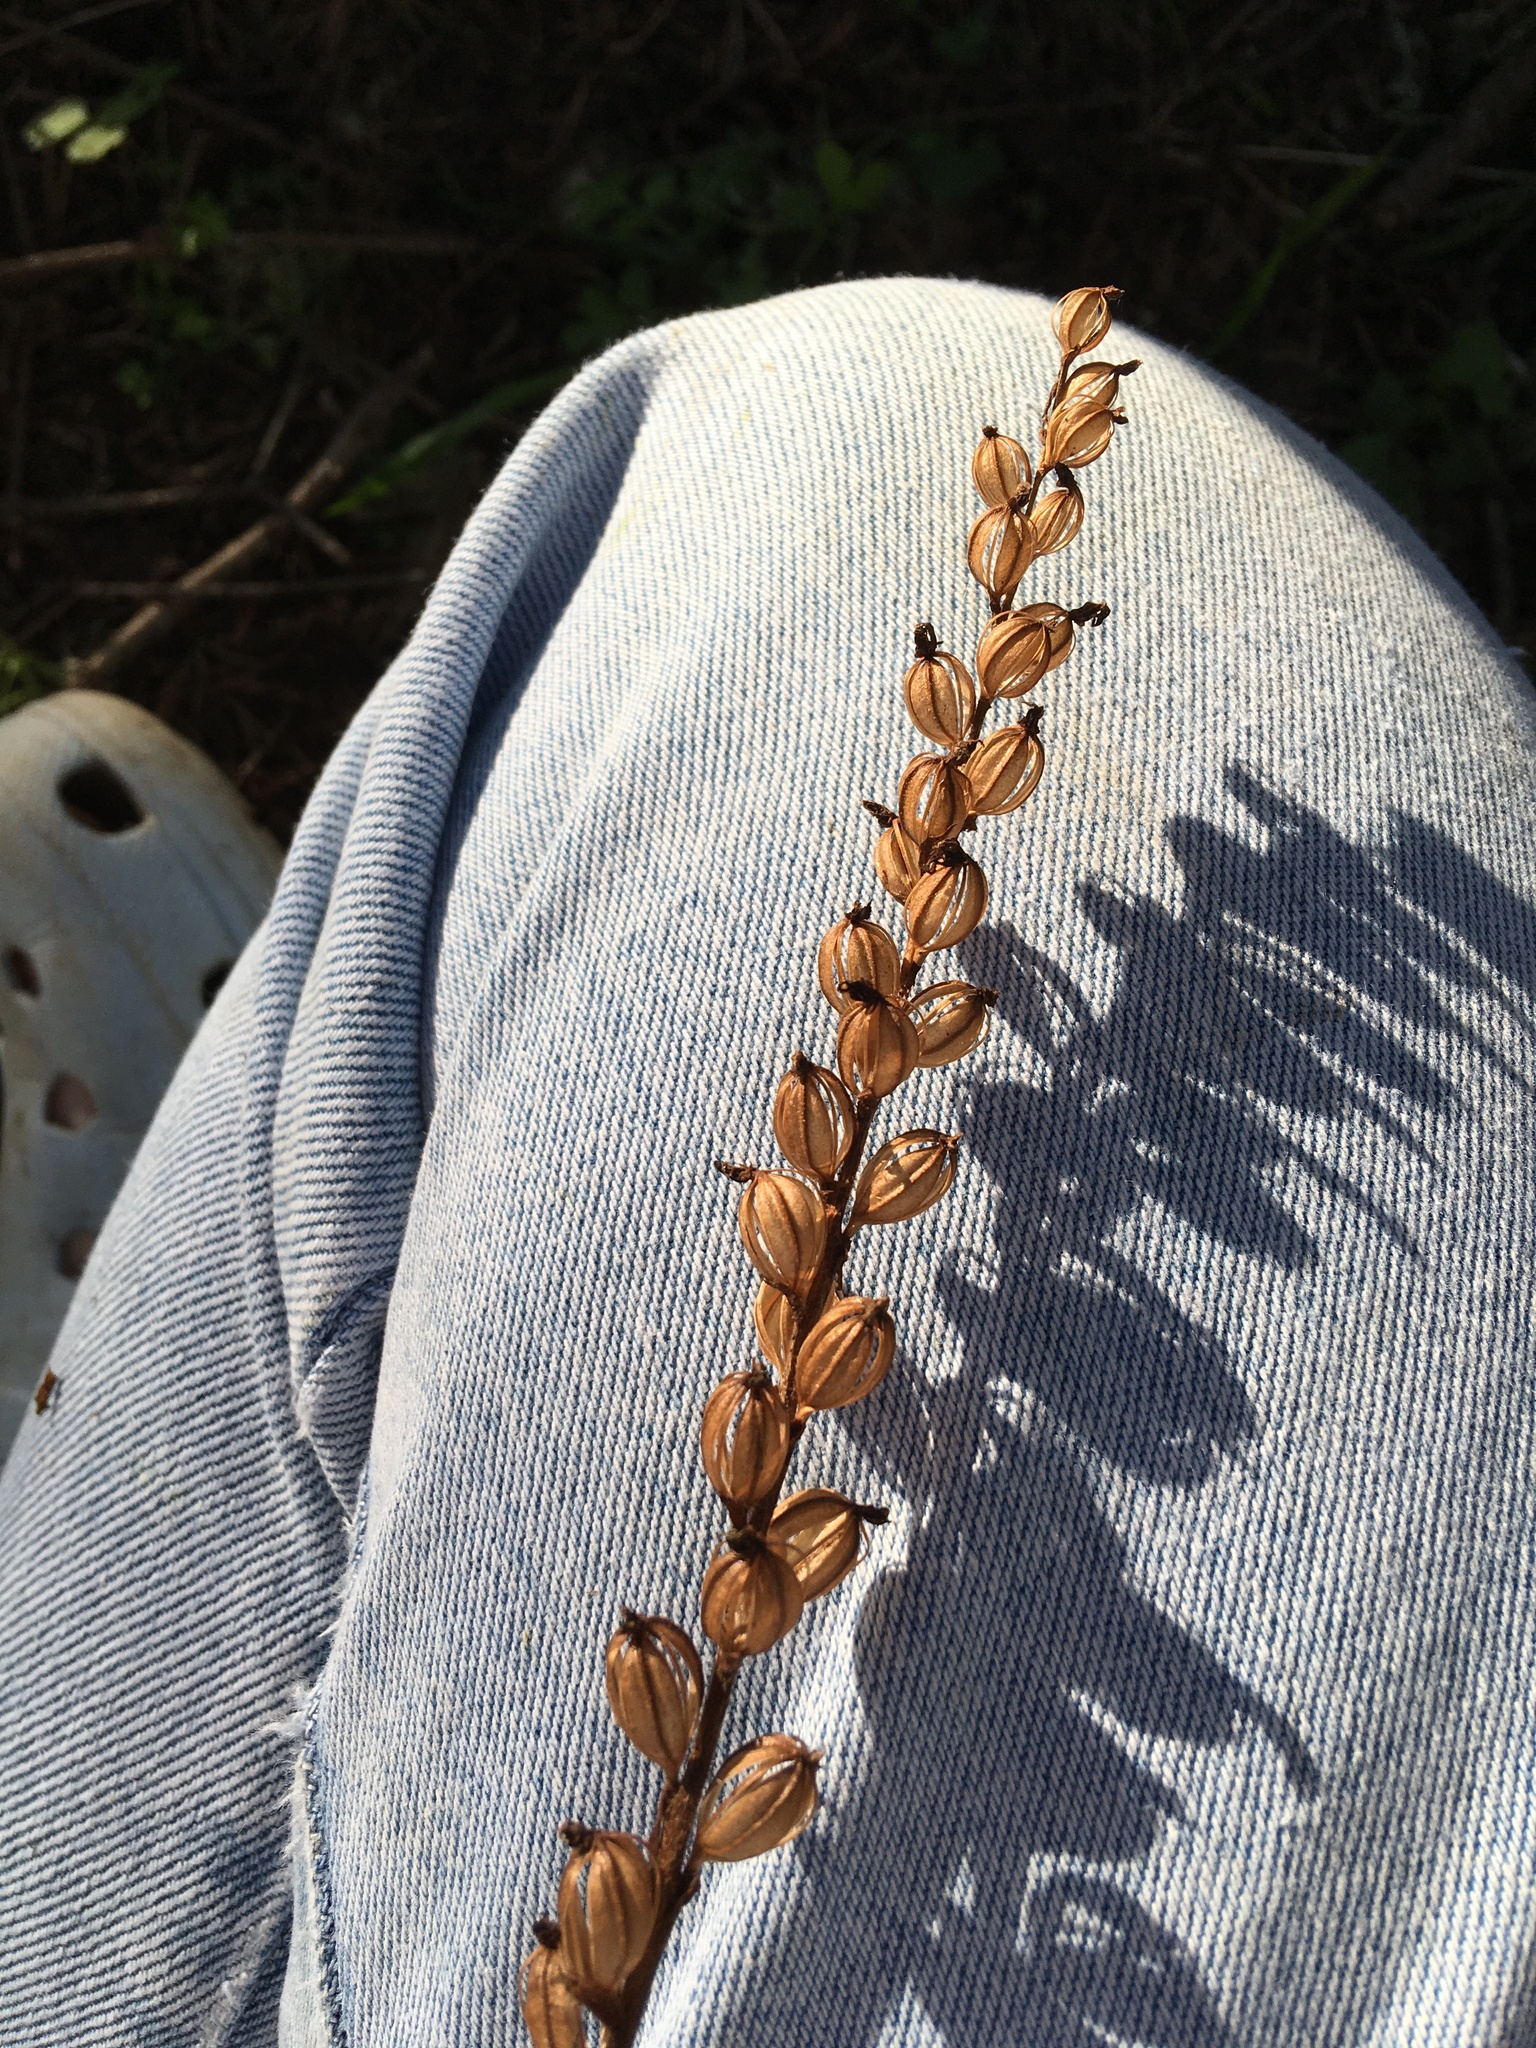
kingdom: Plantae
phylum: Tracheophyta
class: Liliopsida
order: Asparagales
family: Orchidaceae
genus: Goodyera
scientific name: Goodyera oblongifolia
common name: Giant rattlesnake-plantain
